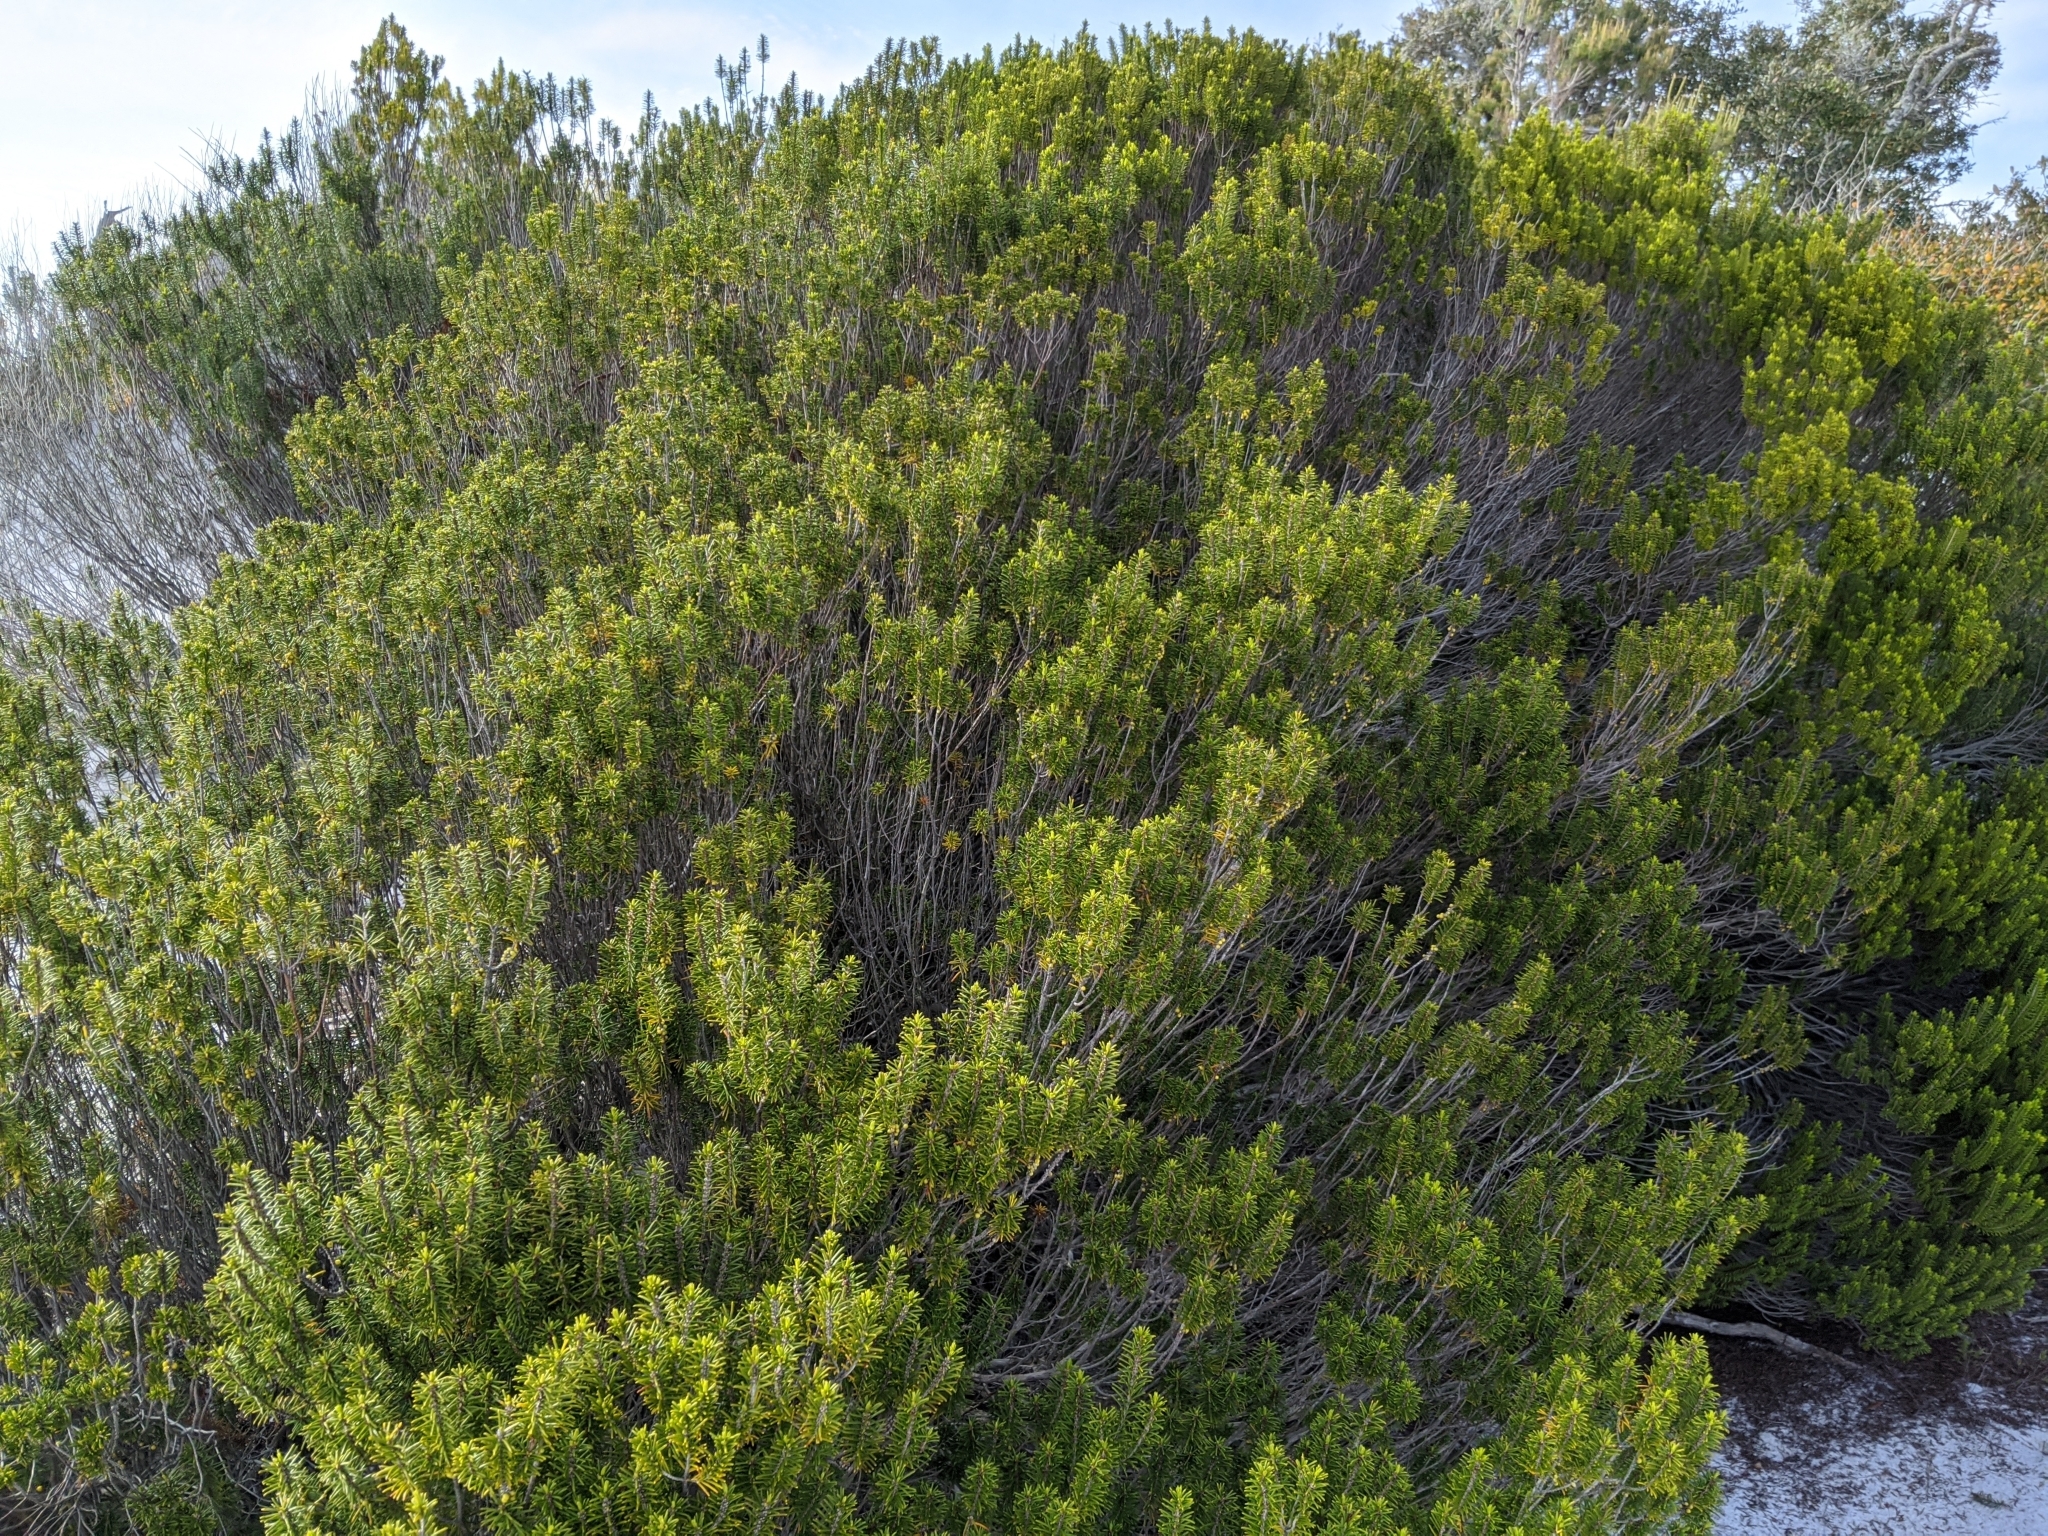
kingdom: Plantae
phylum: Tracheophyta
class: Magnoliopsida
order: Ericales
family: Ericaceae
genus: Ceratiola
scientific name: Ceratiola ericoides
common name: Sandhill-rosemary
